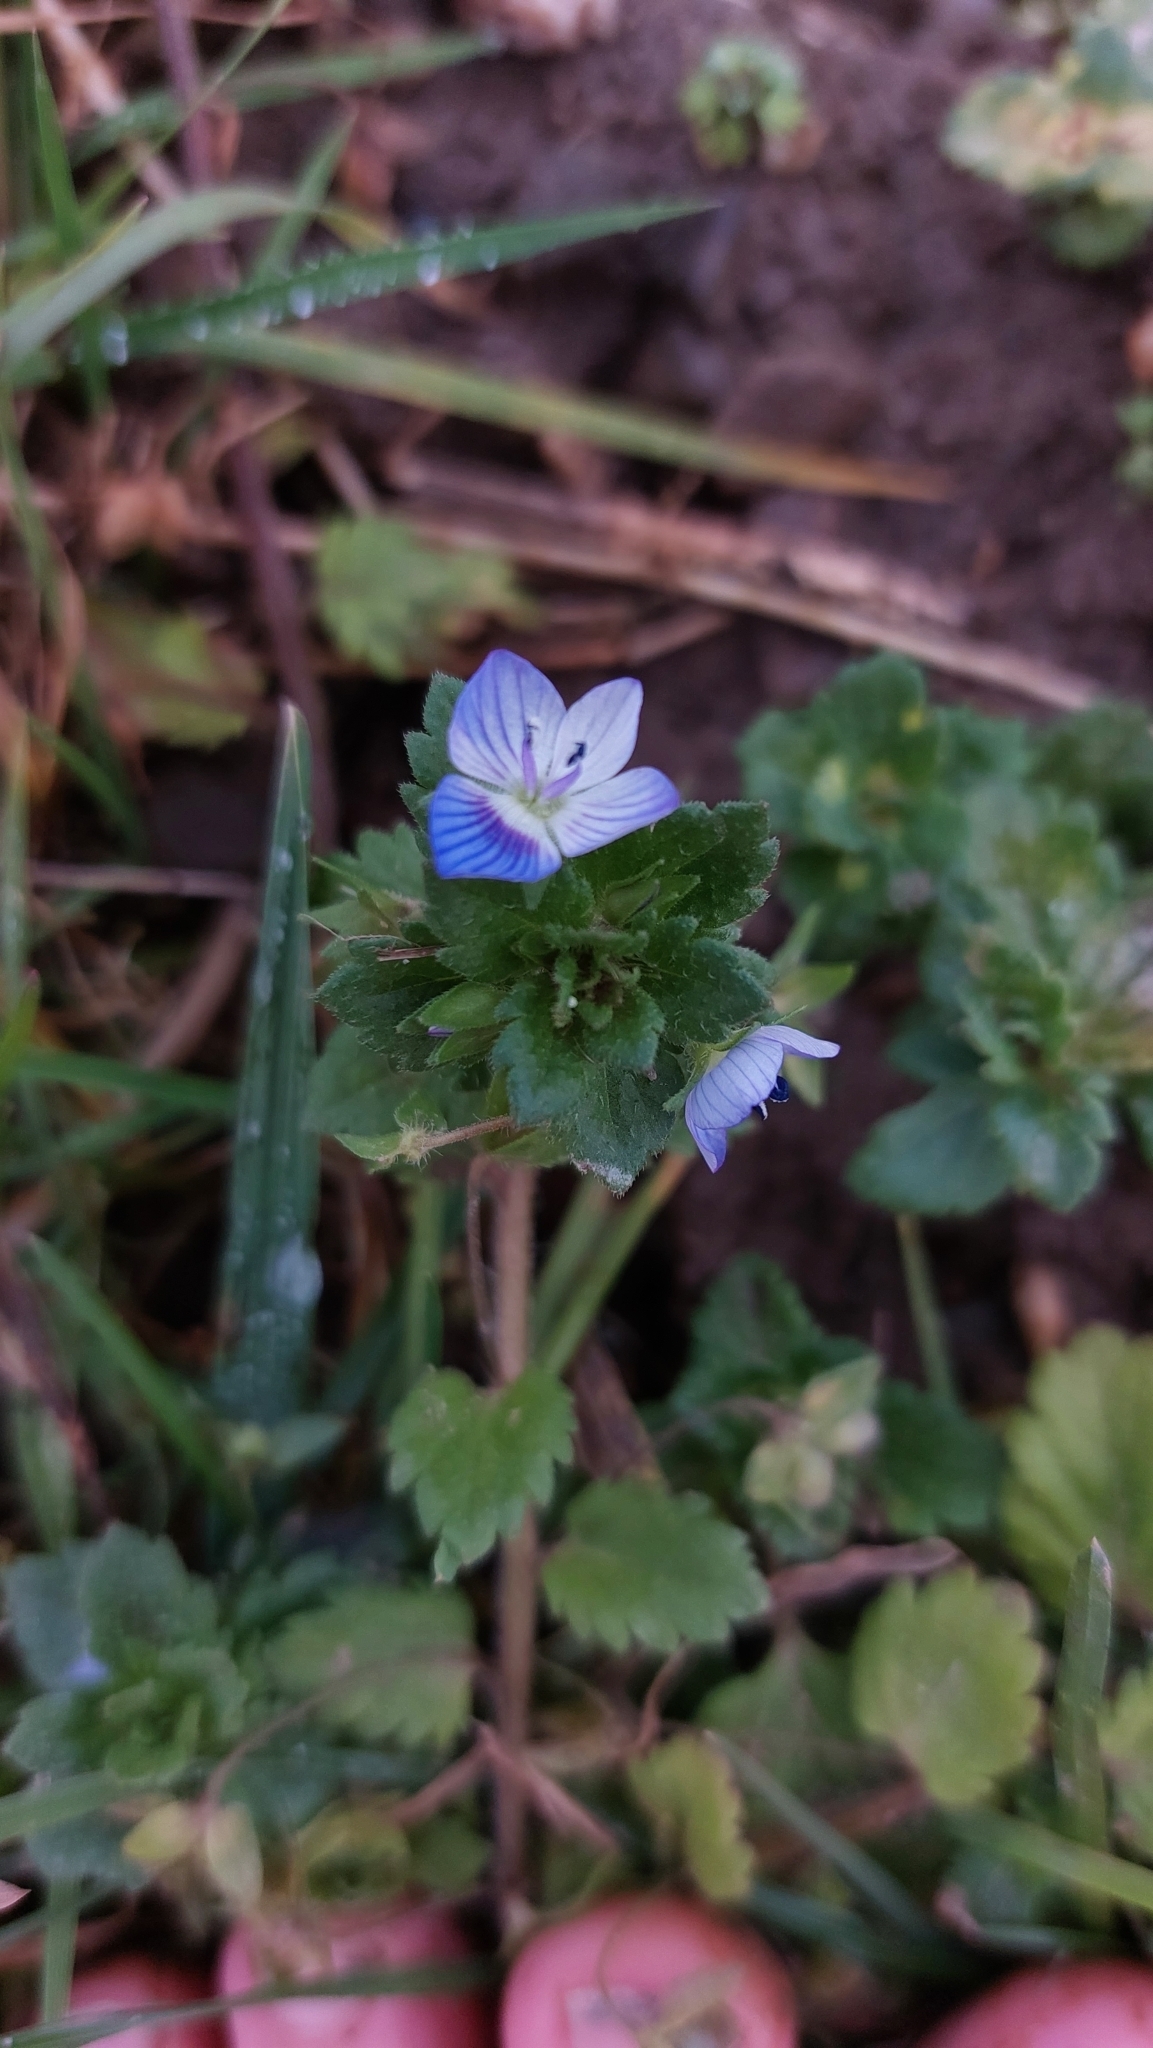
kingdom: Plantae
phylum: Tracheophyta
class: Magnoliopsida
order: Lamiales
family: Plantaginaceae
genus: Veronica
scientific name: Veronica persica
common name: Common field-speedwell
